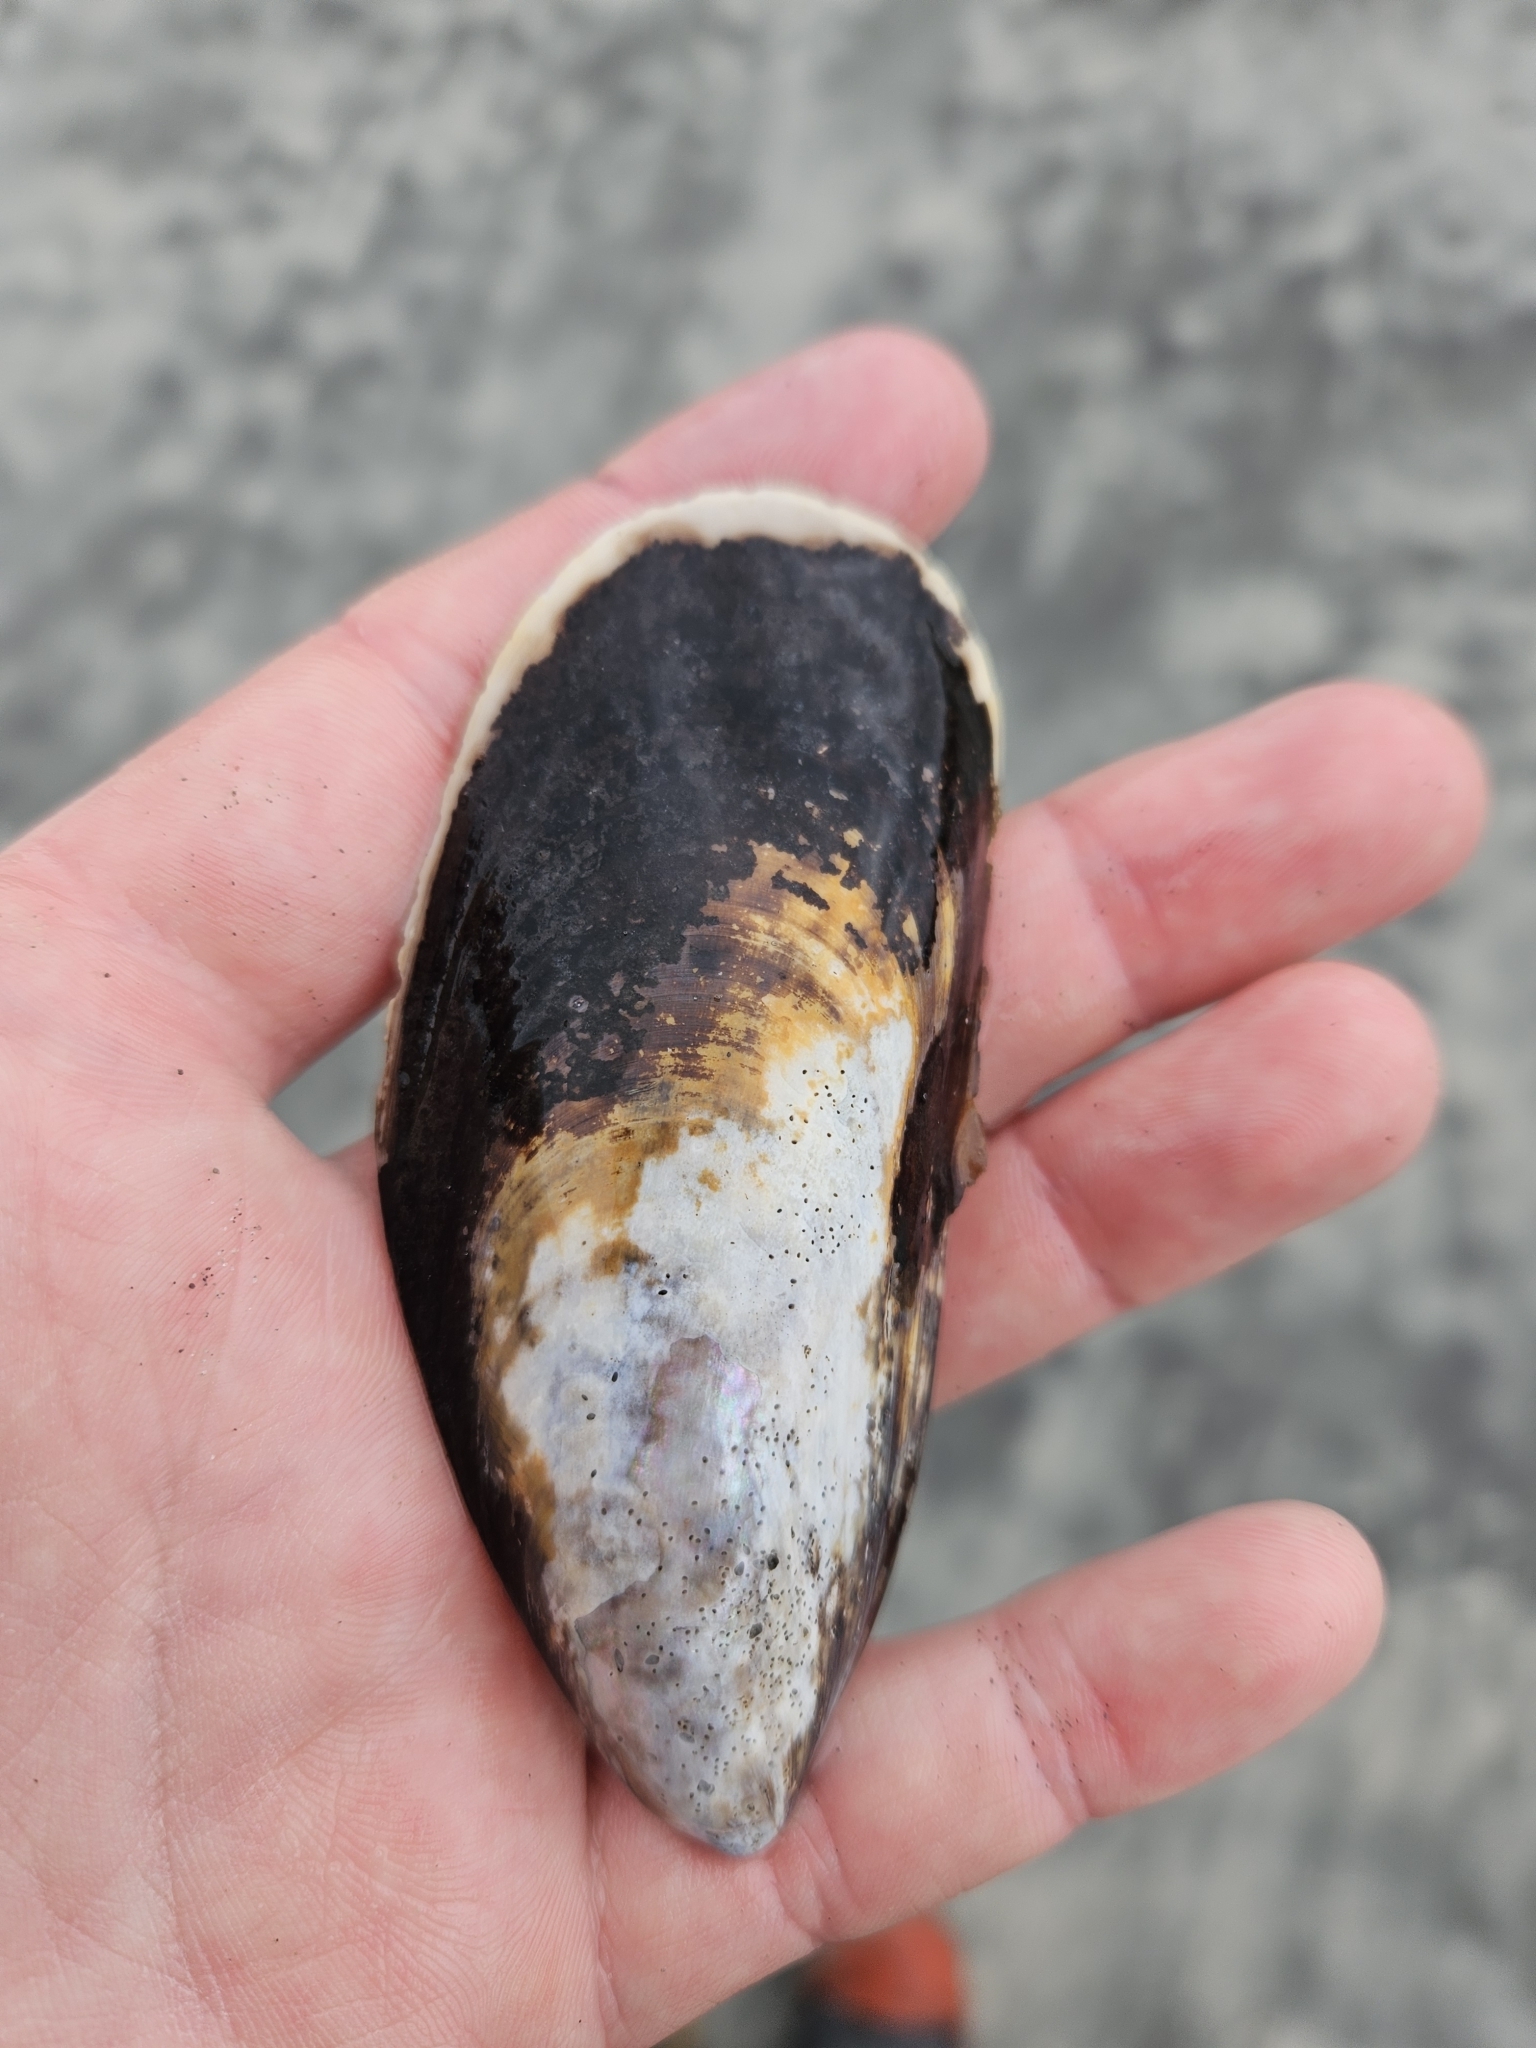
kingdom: Animalia
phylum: Mollusca
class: Bivalvia
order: Mytilida
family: Mytilidae
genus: Perna
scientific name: Perna canaliculus
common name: New zealand greenshelltm
